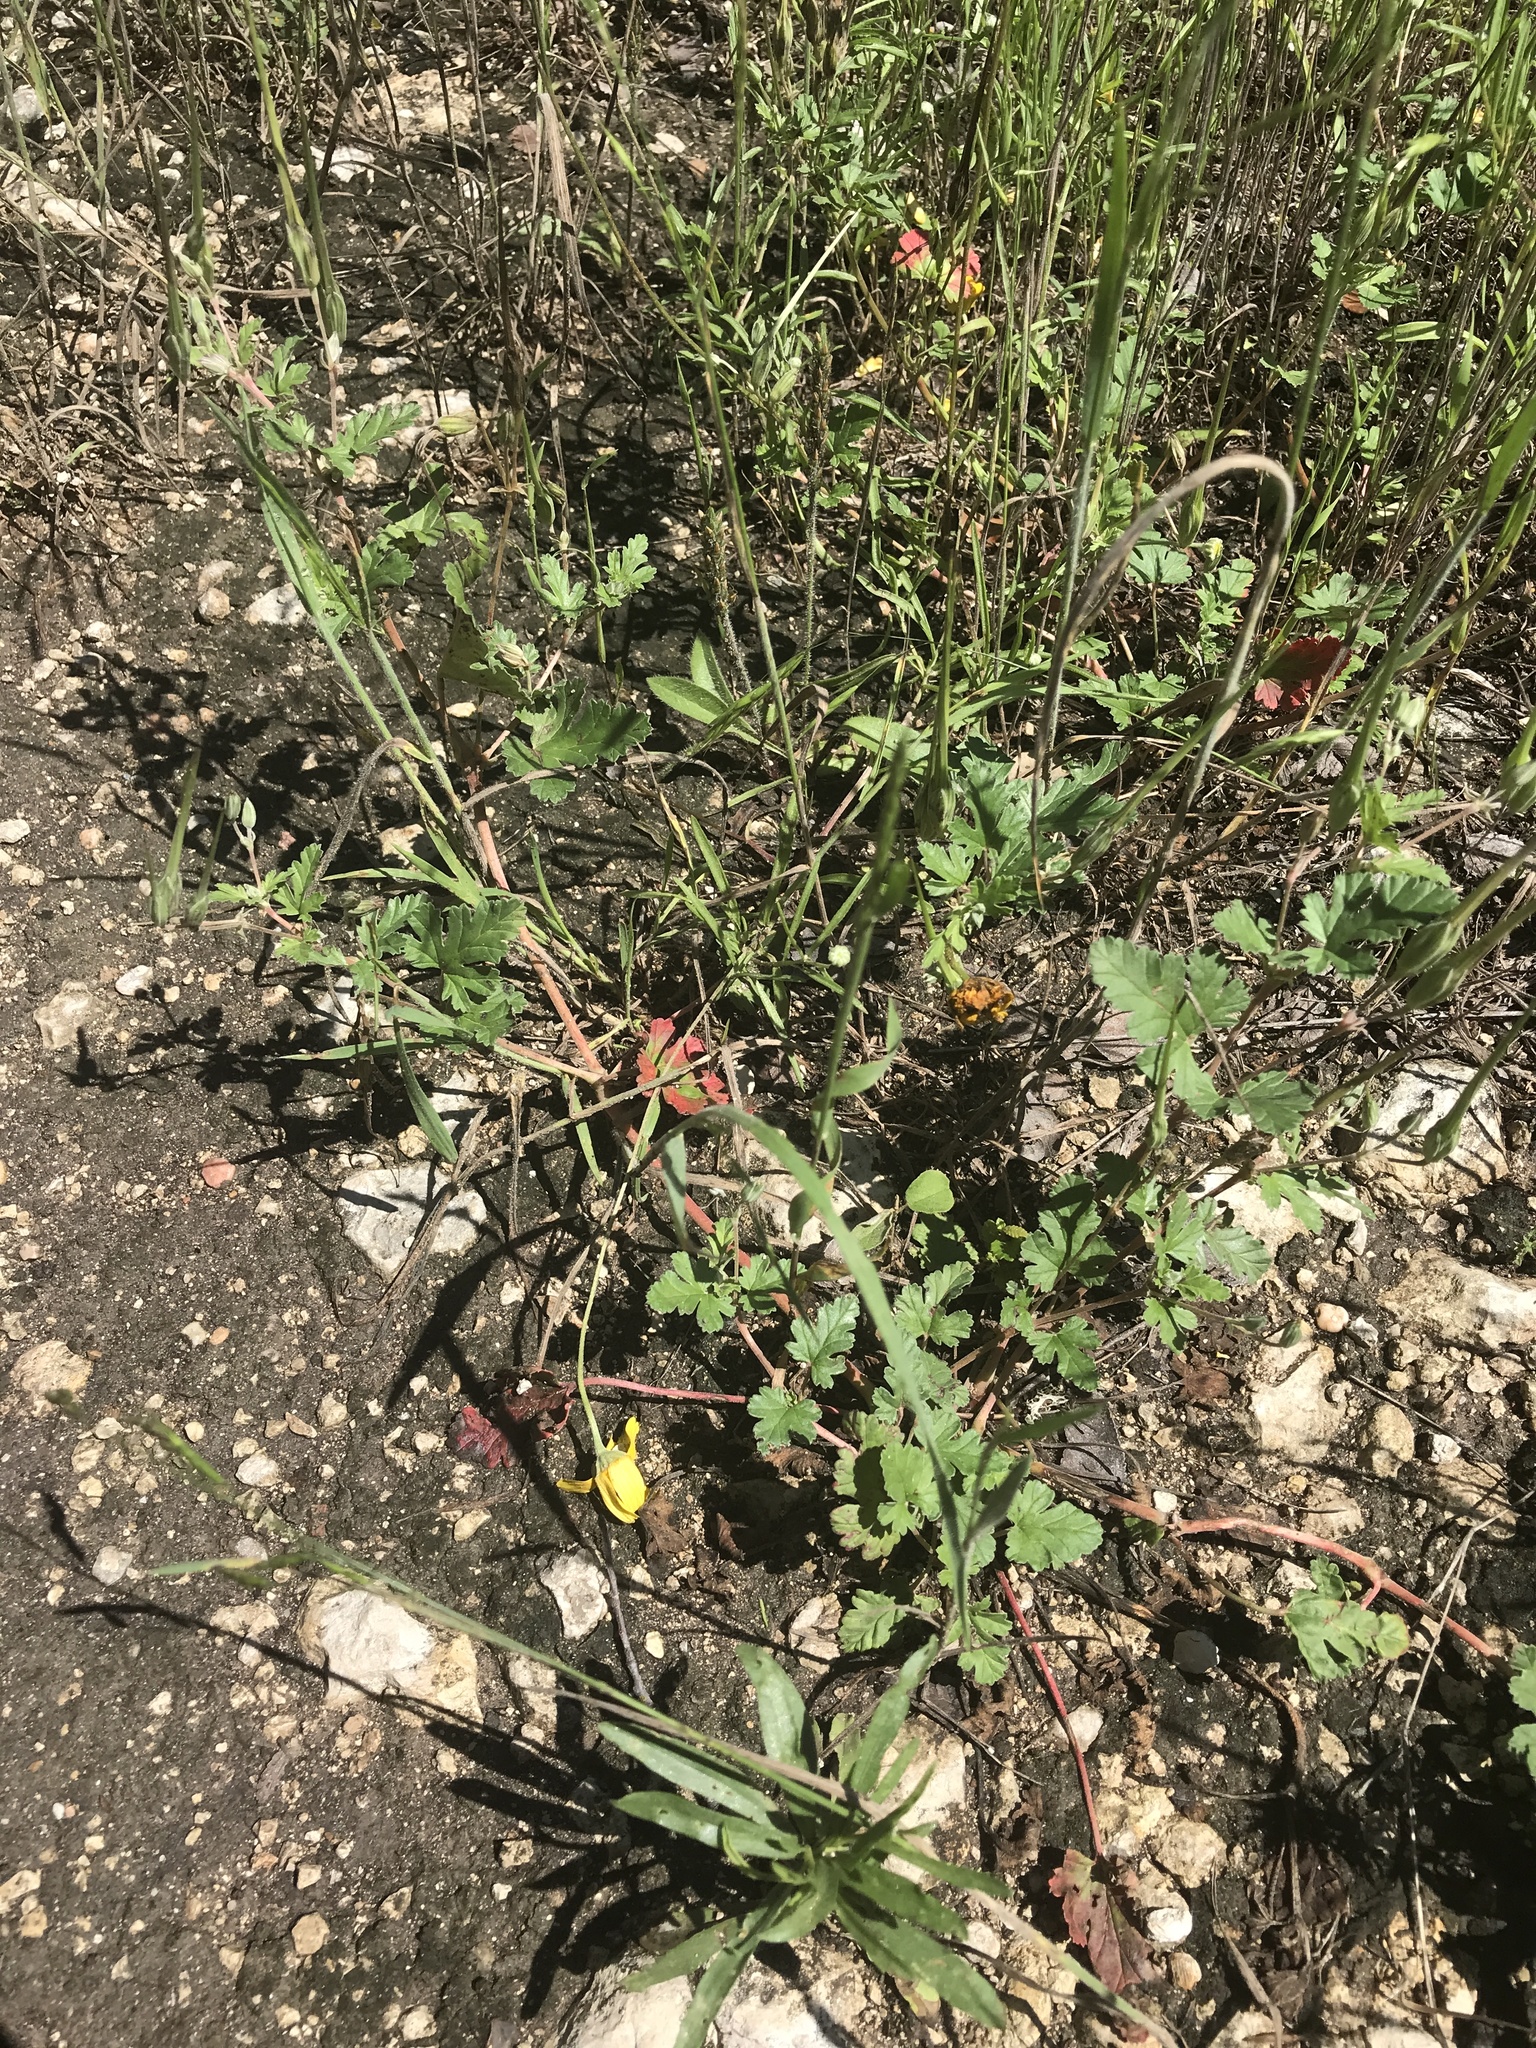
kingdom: Plantae
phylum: Tracheophyta
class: Magnoliopsida
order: Geraniales
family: Geraniaceae
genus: Erodium
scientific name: Erodium texanum
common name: Texas stork's-bill
